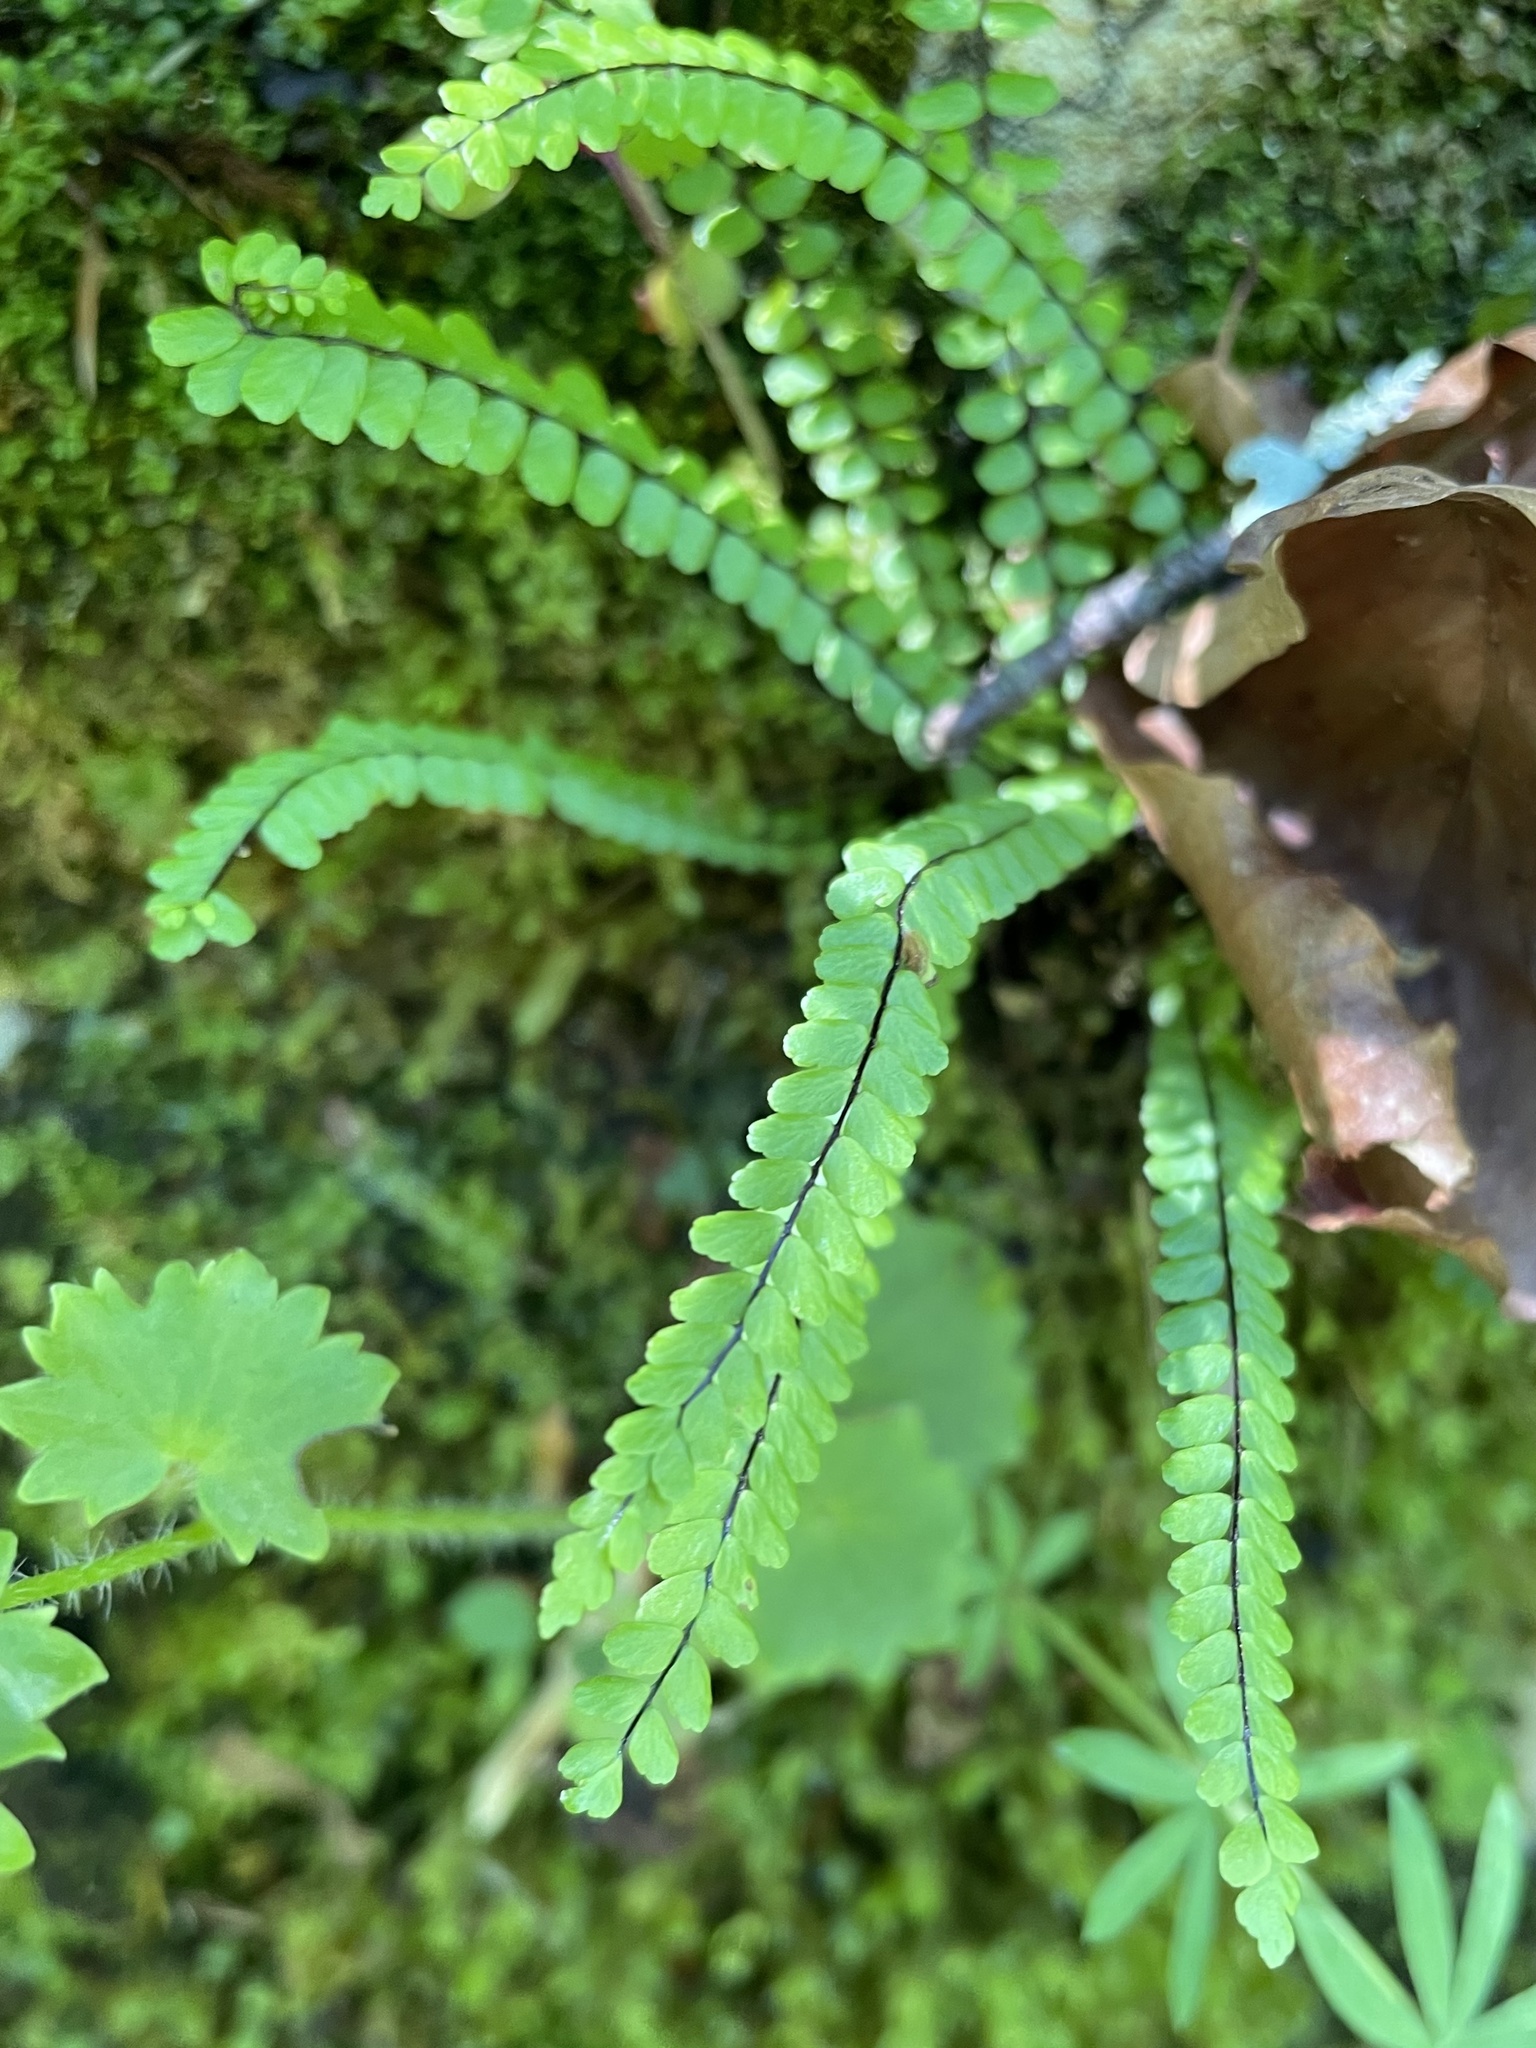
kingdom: Plantae
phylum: Tracheophyta
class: Polypodiopsida
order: Polypodiales
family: Aspleniaceae
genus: Asplenium
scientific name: Asplenium trichomanes
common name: Maidenhair spleenwort
